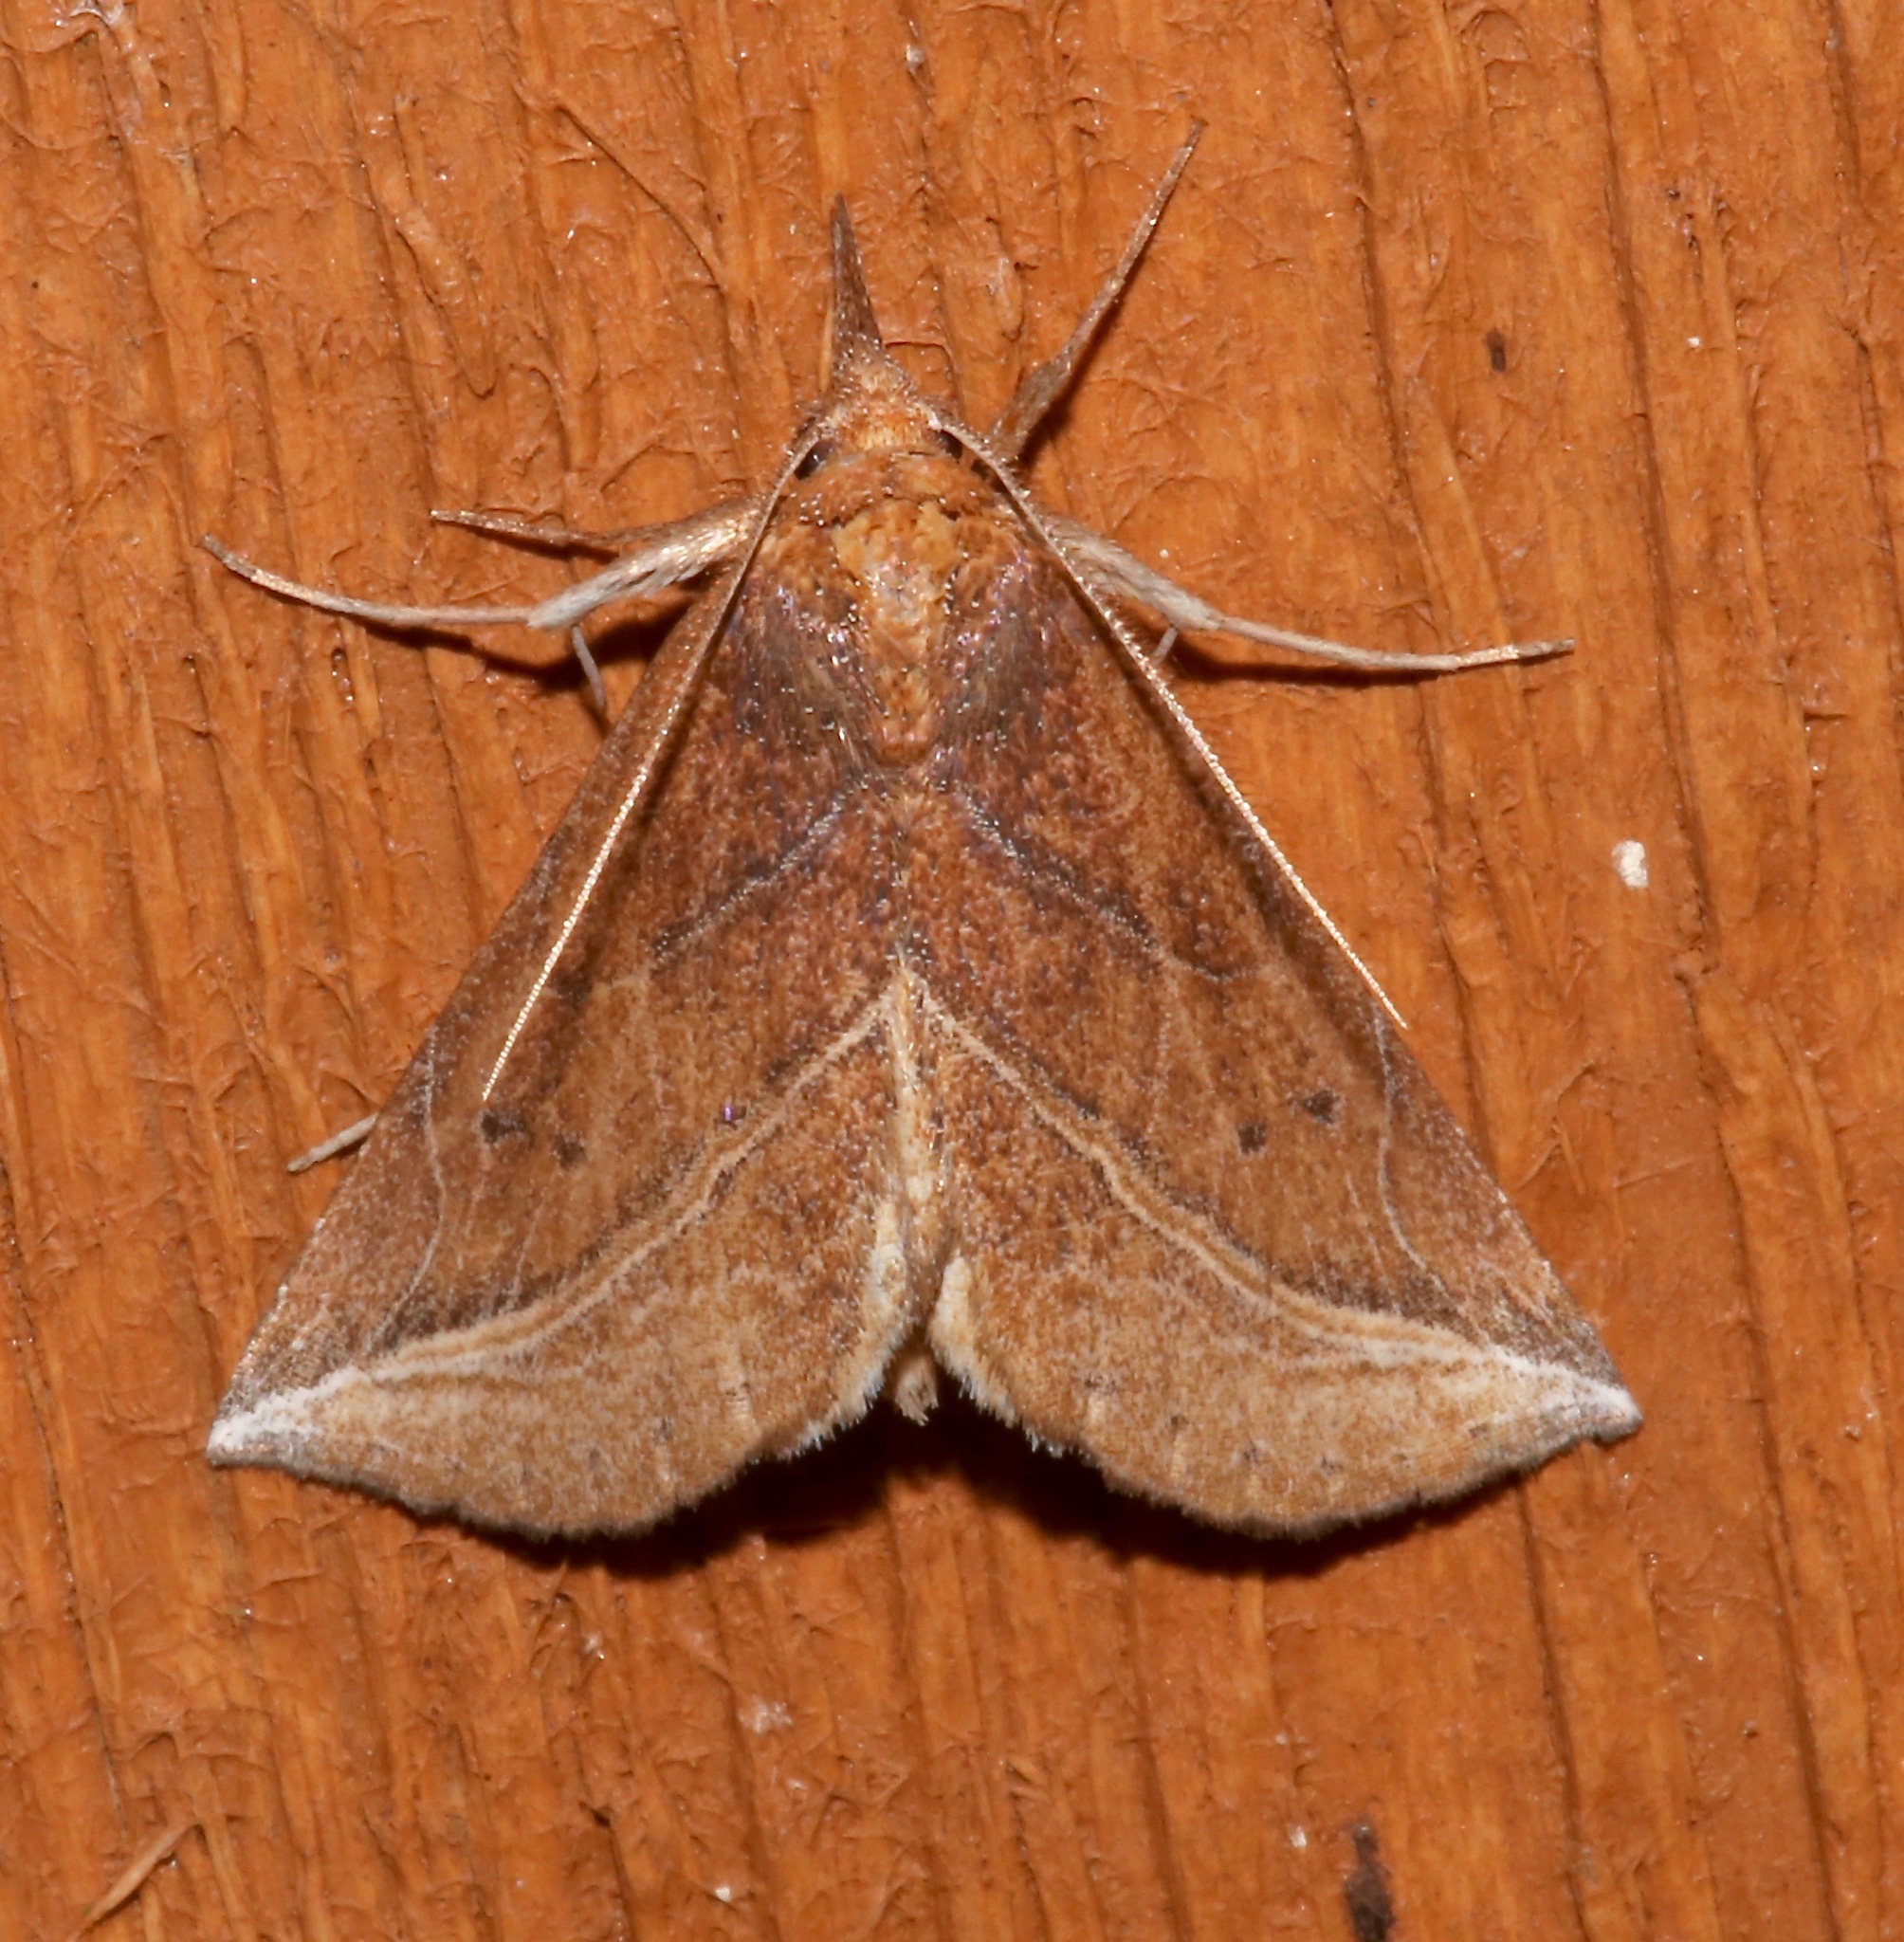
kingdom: Animalia
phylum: Arthropoda
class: Insecta
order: Lepidoptera
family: Erebidae
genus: Phyprosopus
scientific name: Phyprosopus callitrichoides
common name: Curved-lined owlet
